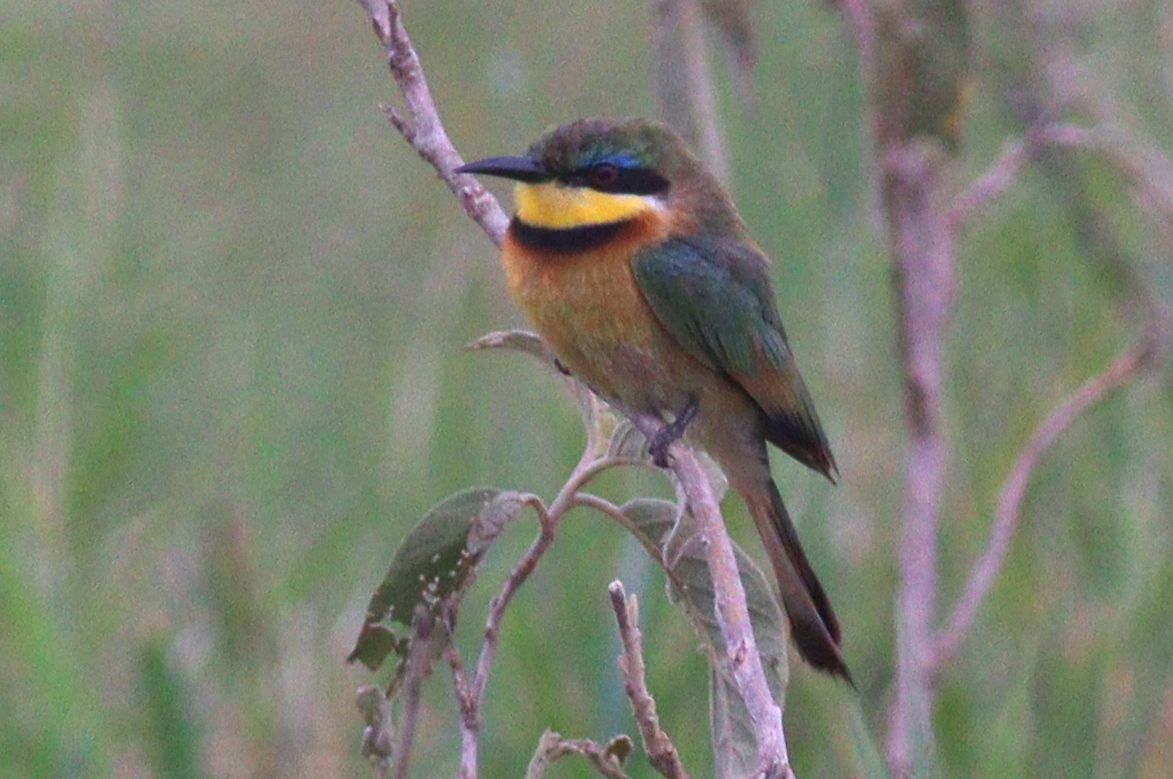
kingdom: Animalia
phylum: Chordata
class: Aves
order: Coraciiformes
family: Meropidae
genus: Merops
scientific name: Merops pusillus
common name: Little bee-eater
